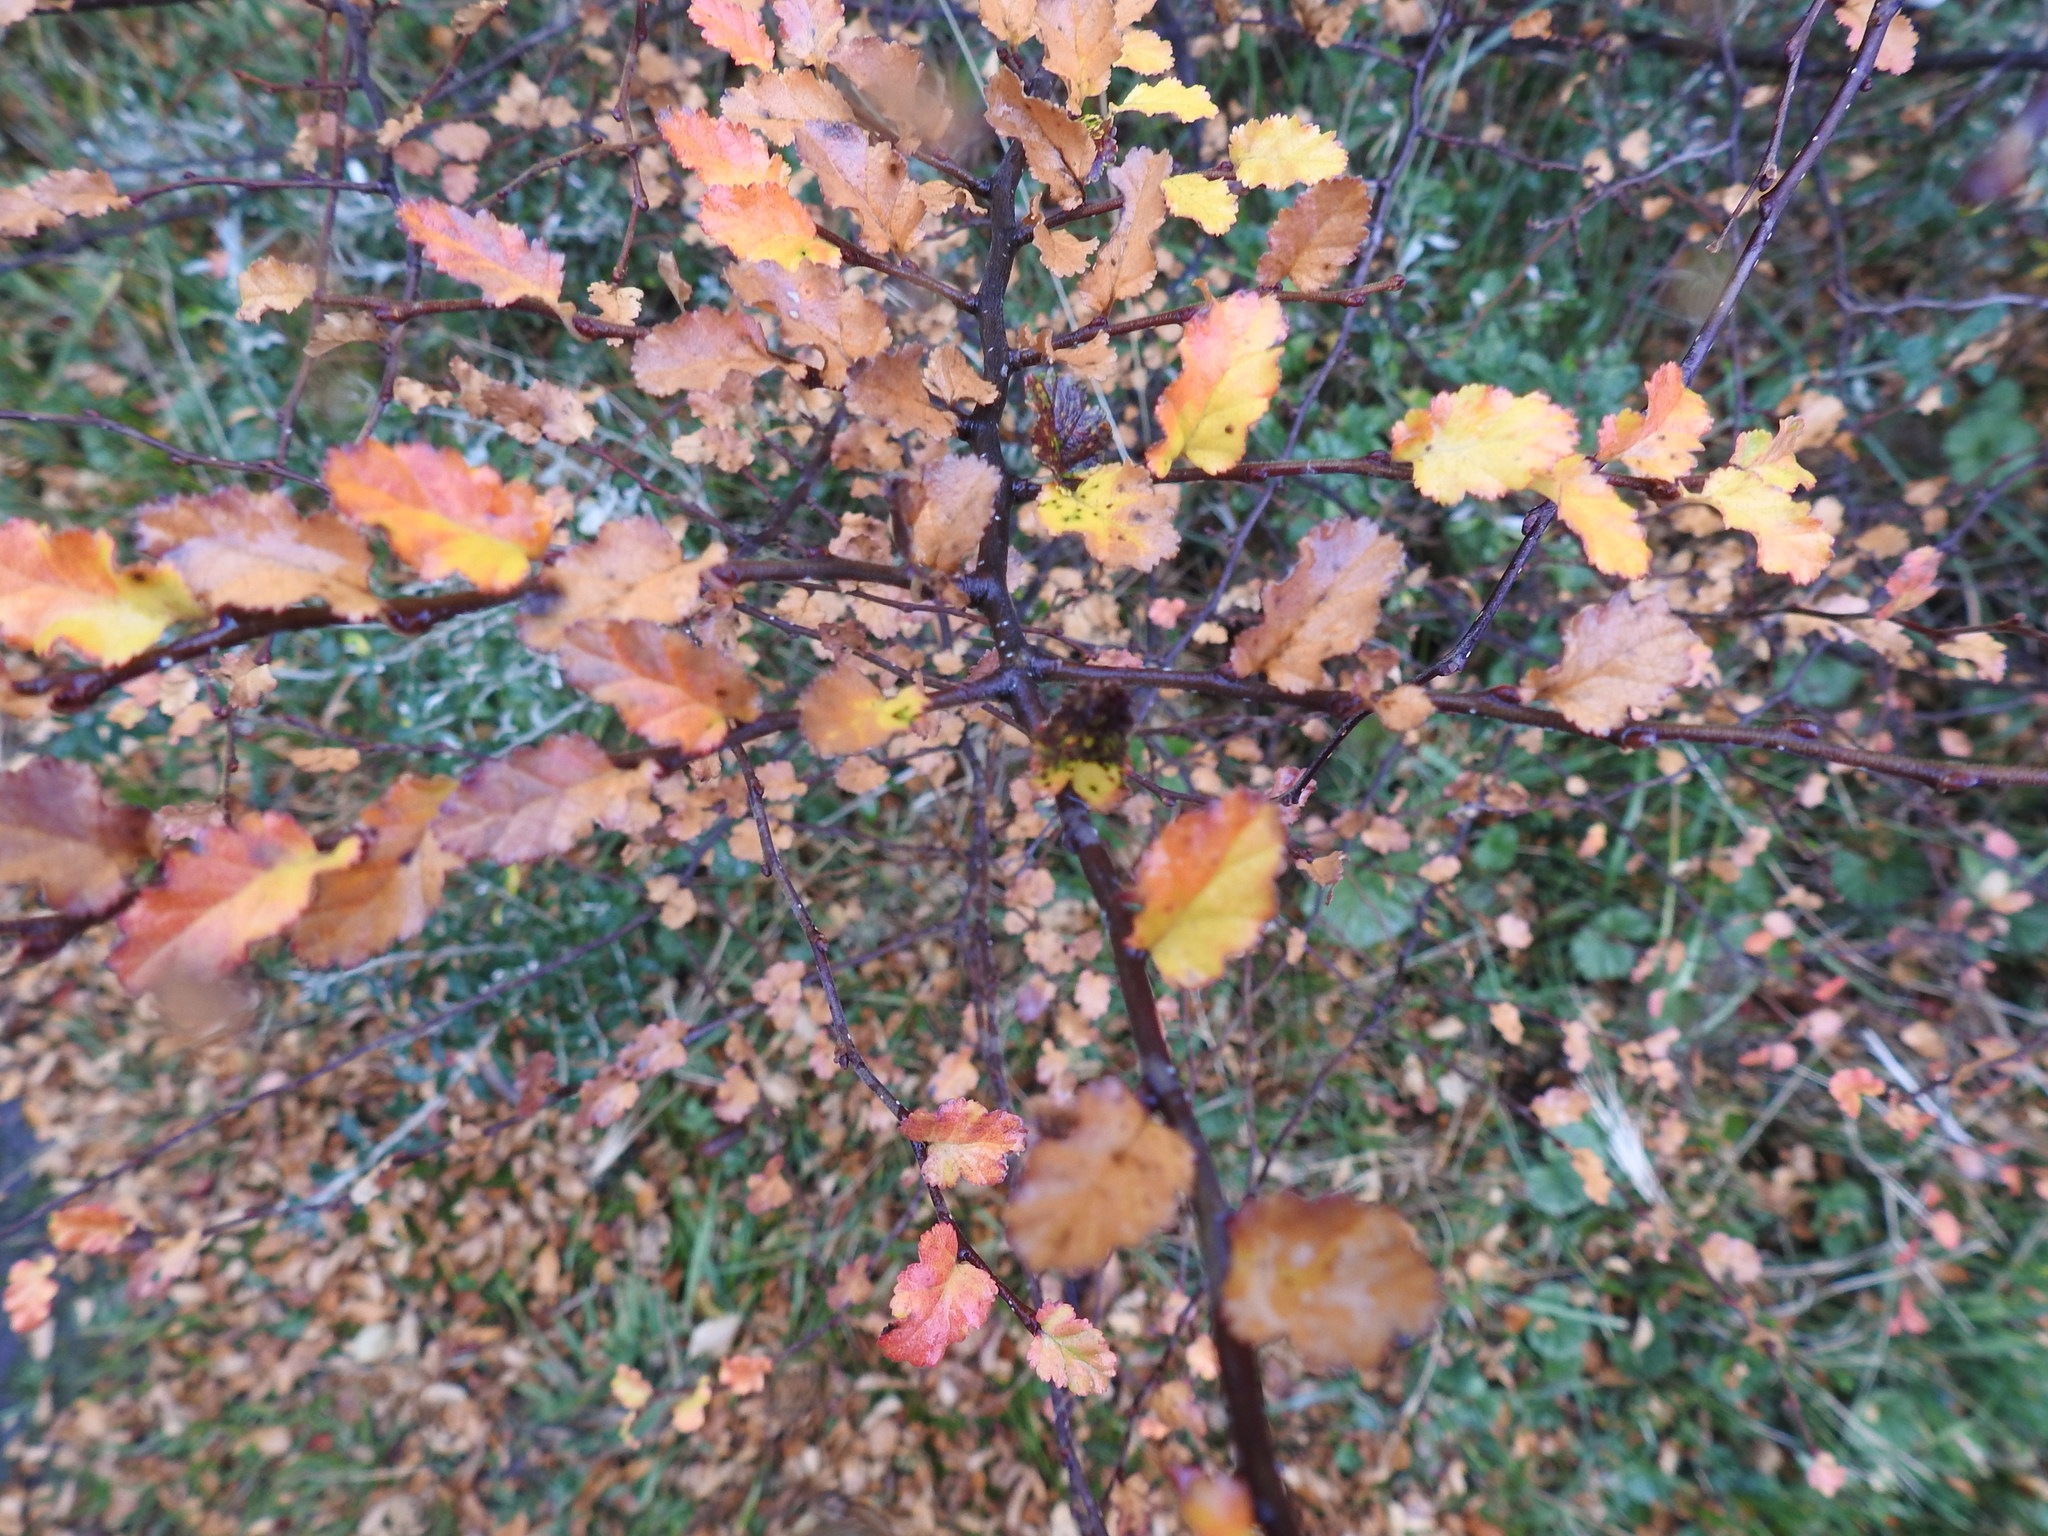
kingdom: Plantae
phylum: Tracheophyta
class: Magnoliopsida
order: Fagales
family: Nothofagaceae
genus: Nothofagus
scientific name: Nothofagus antarctica
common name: Antarctic beech
